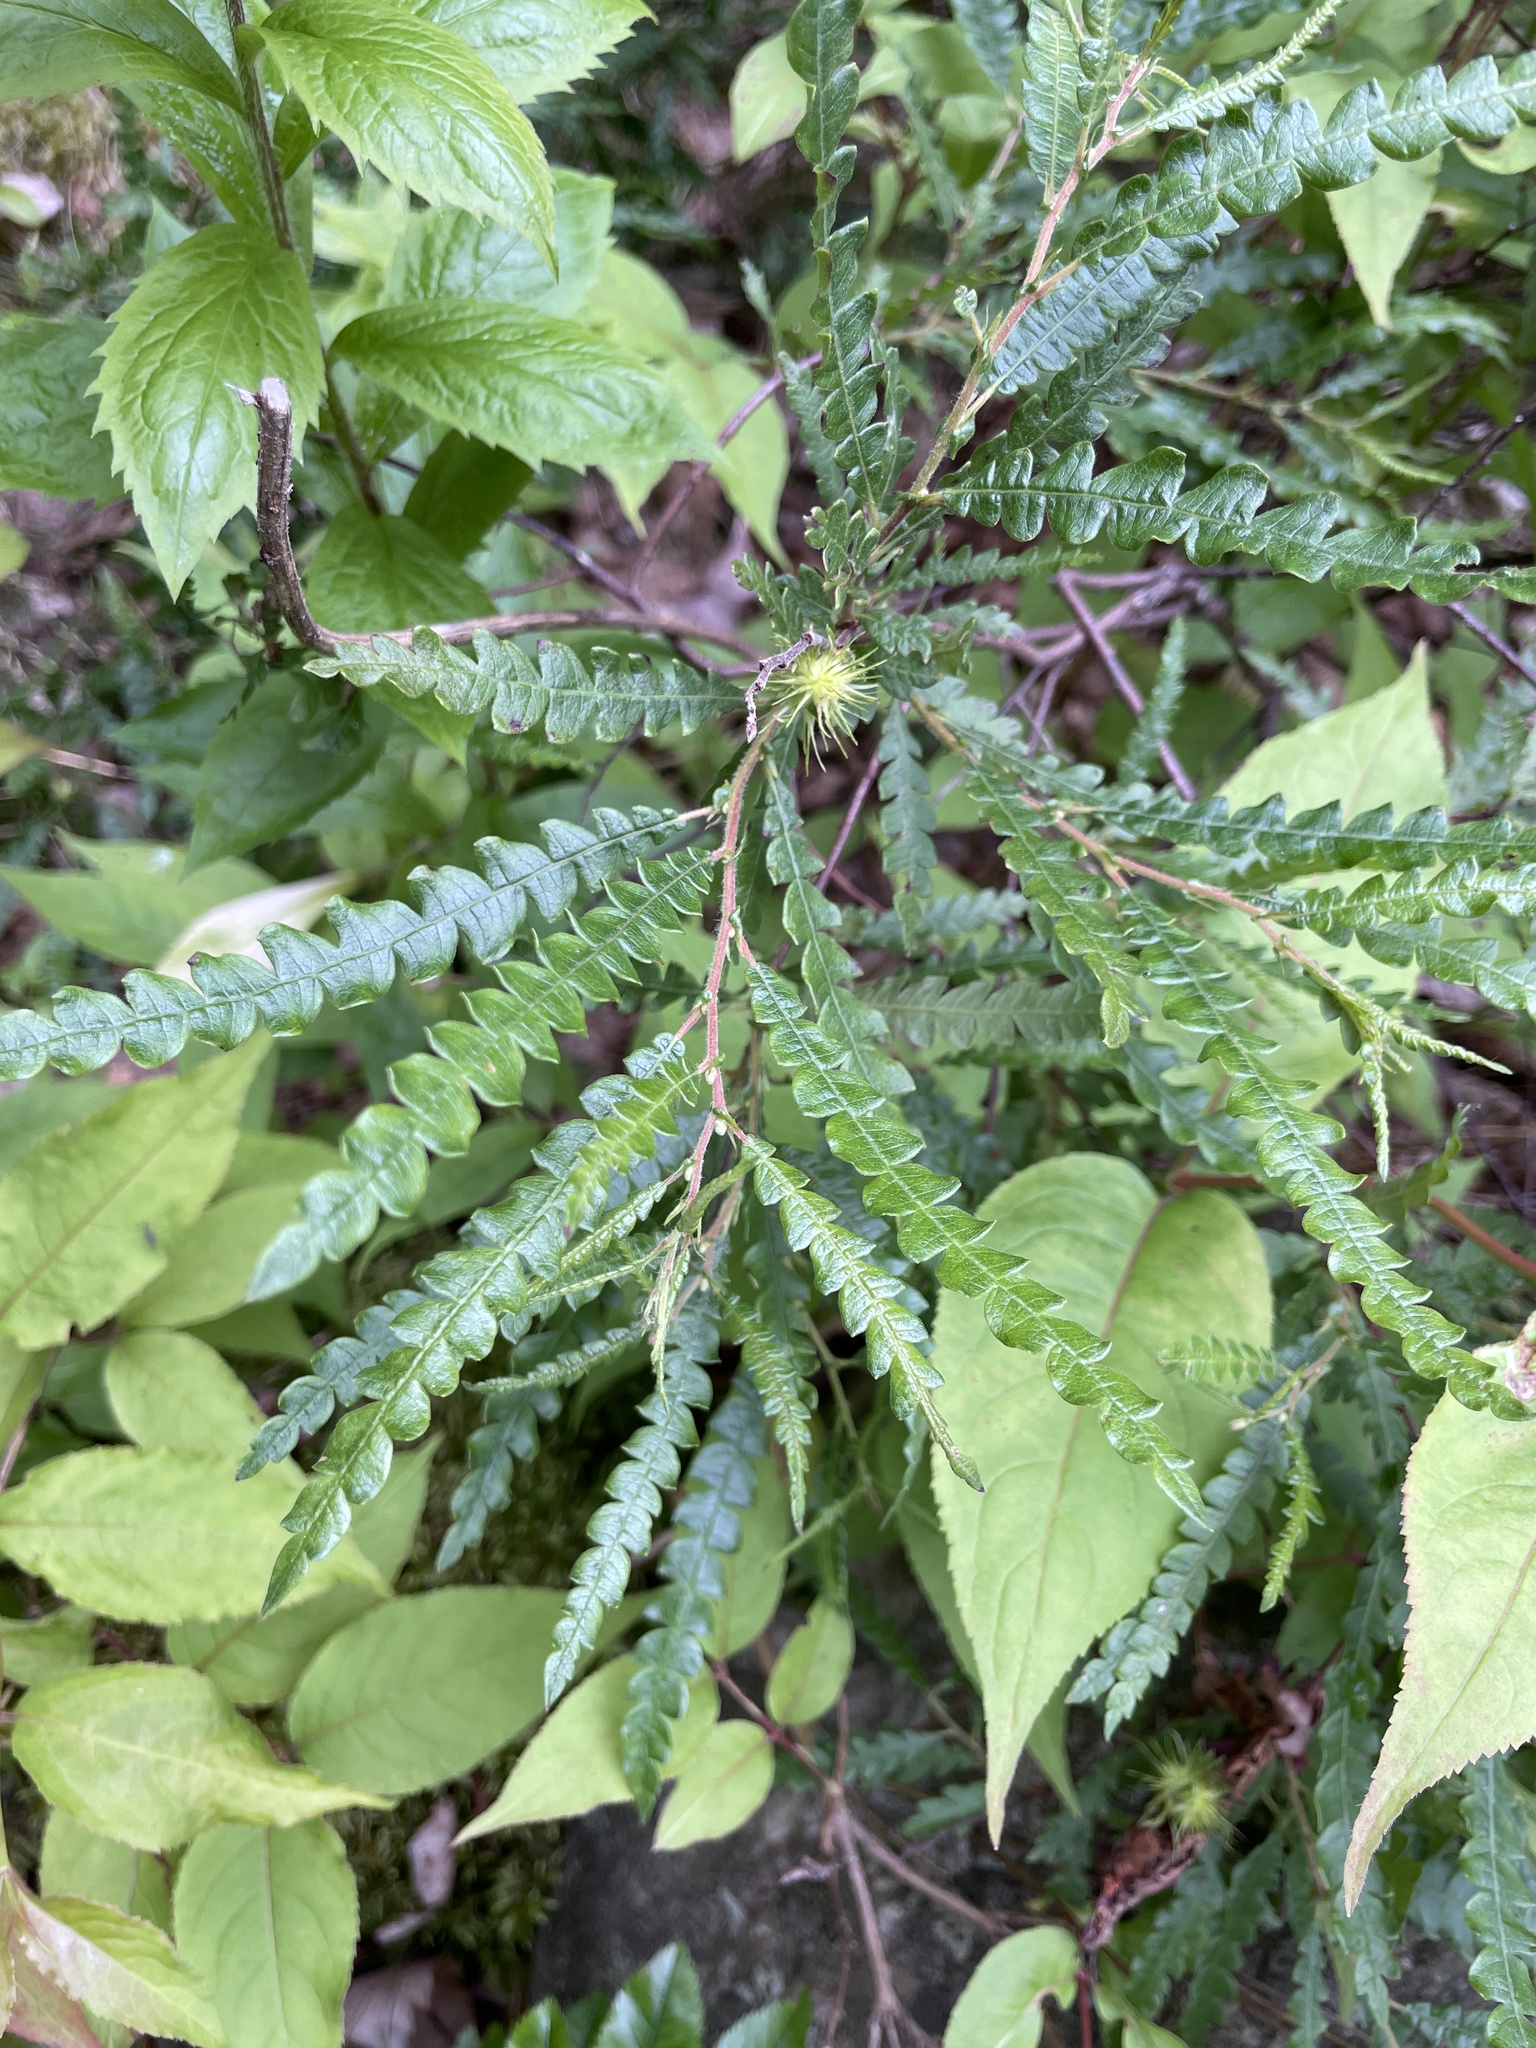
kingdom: Plantae
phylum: Tracheophyta
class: Magnoliopsida
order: Fagales
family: Myricaceae
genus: Comptonia
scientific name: Comptonia peregrina
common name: Sweet-fern
